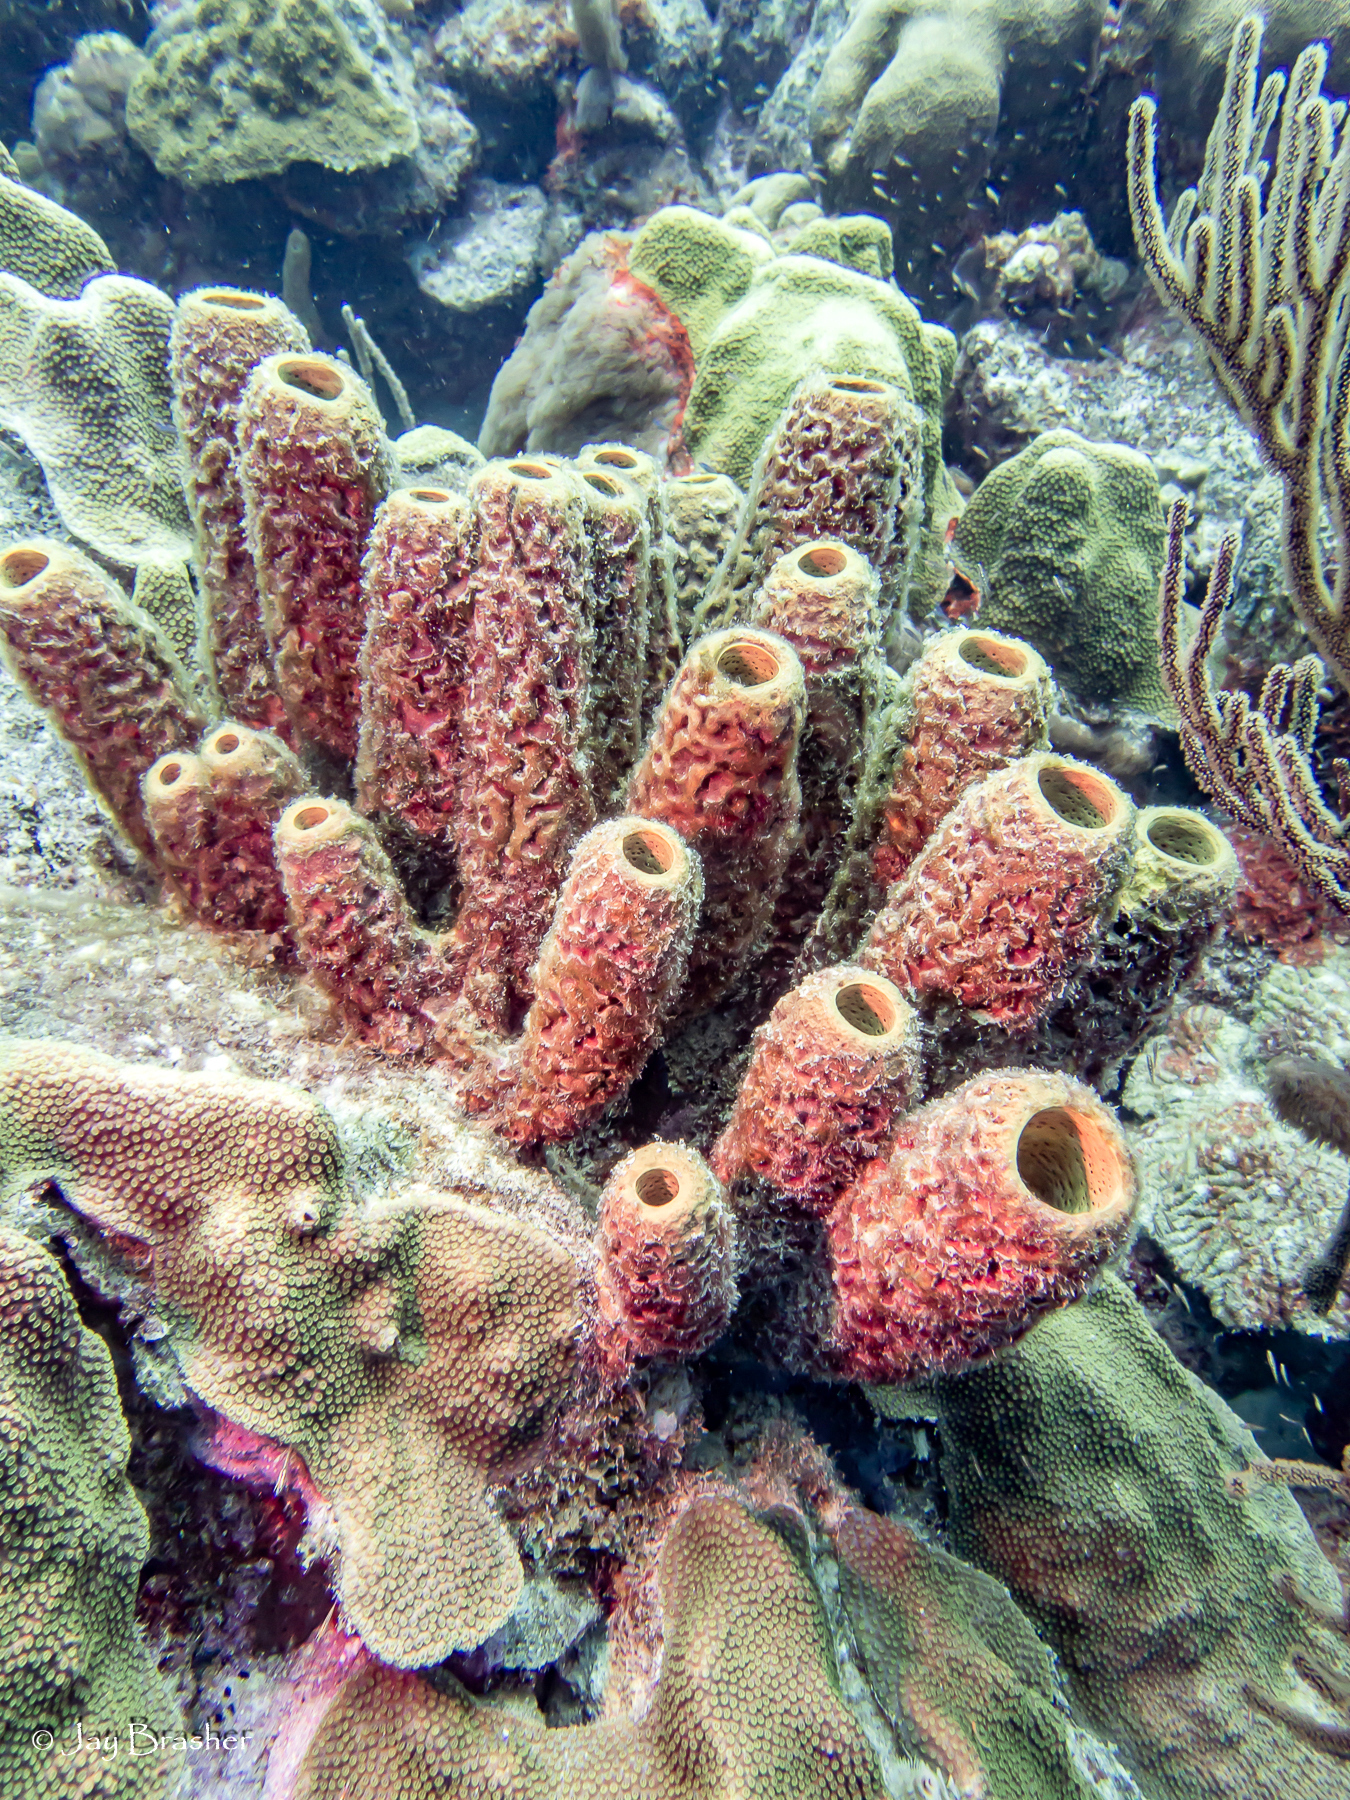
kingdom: Animalia
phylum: Porifera
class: Demospongiae
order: Verongiida
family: Aplysinidae
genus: Aplysina
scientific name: Aplysina archeri
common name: Stove-pipe sponge
